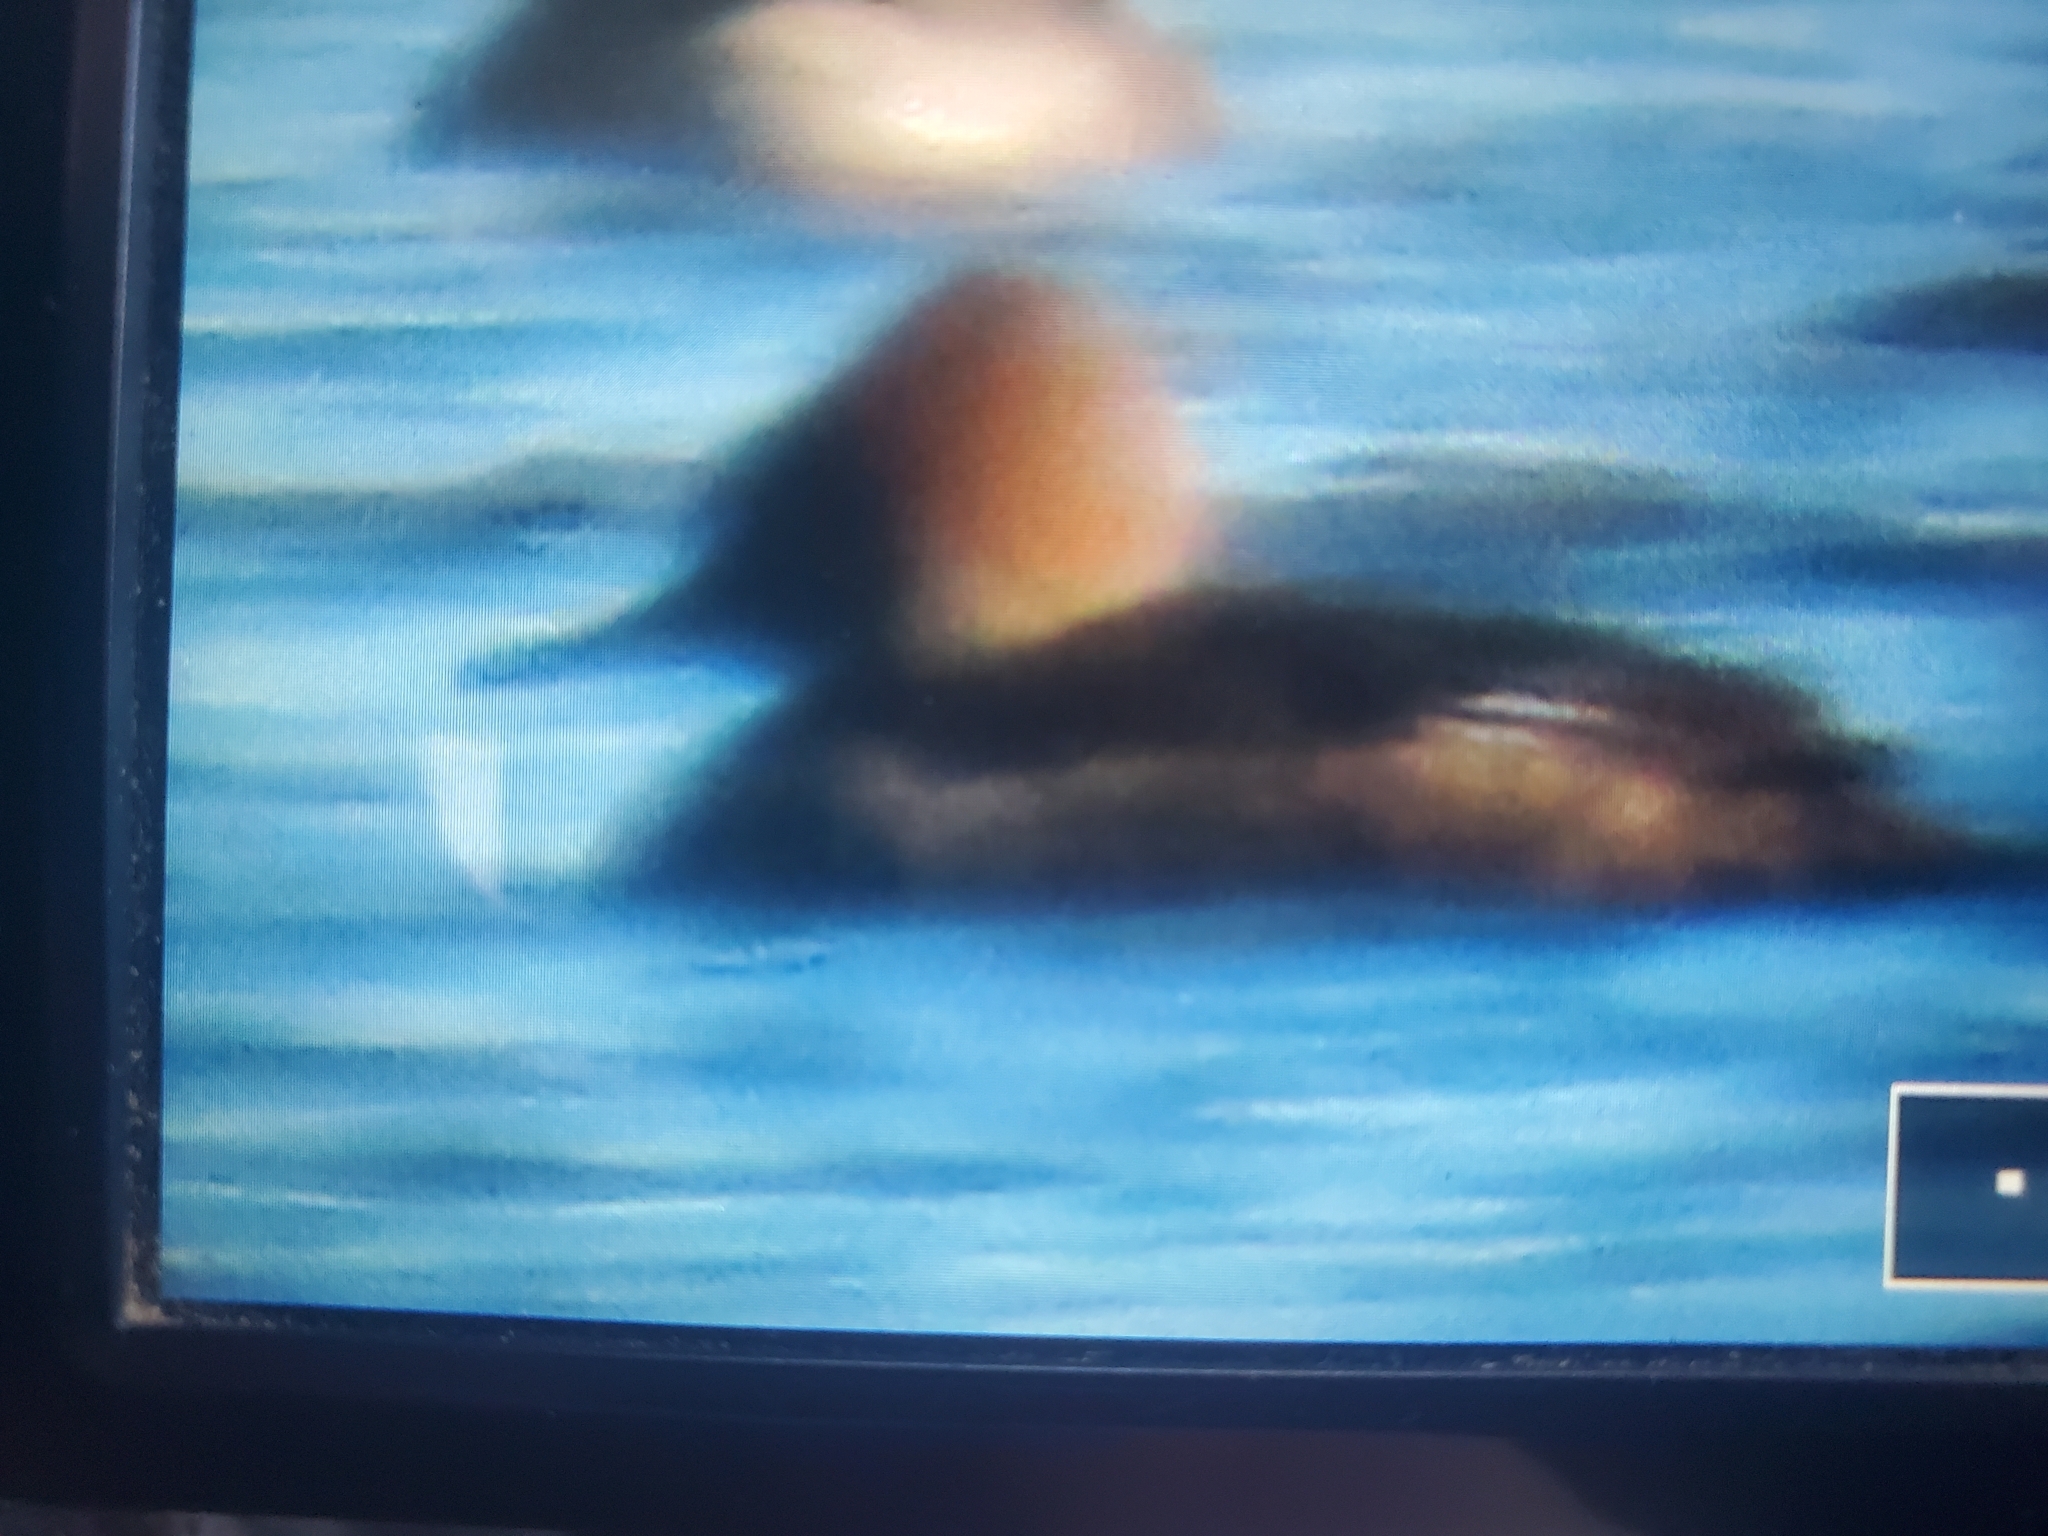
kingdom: Animalia
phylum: Chordata
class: Aves
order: Anseriformes
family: Anatidae
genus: Lophodytes
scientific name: Lophodytes cucullatus
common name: Hooded merganser
